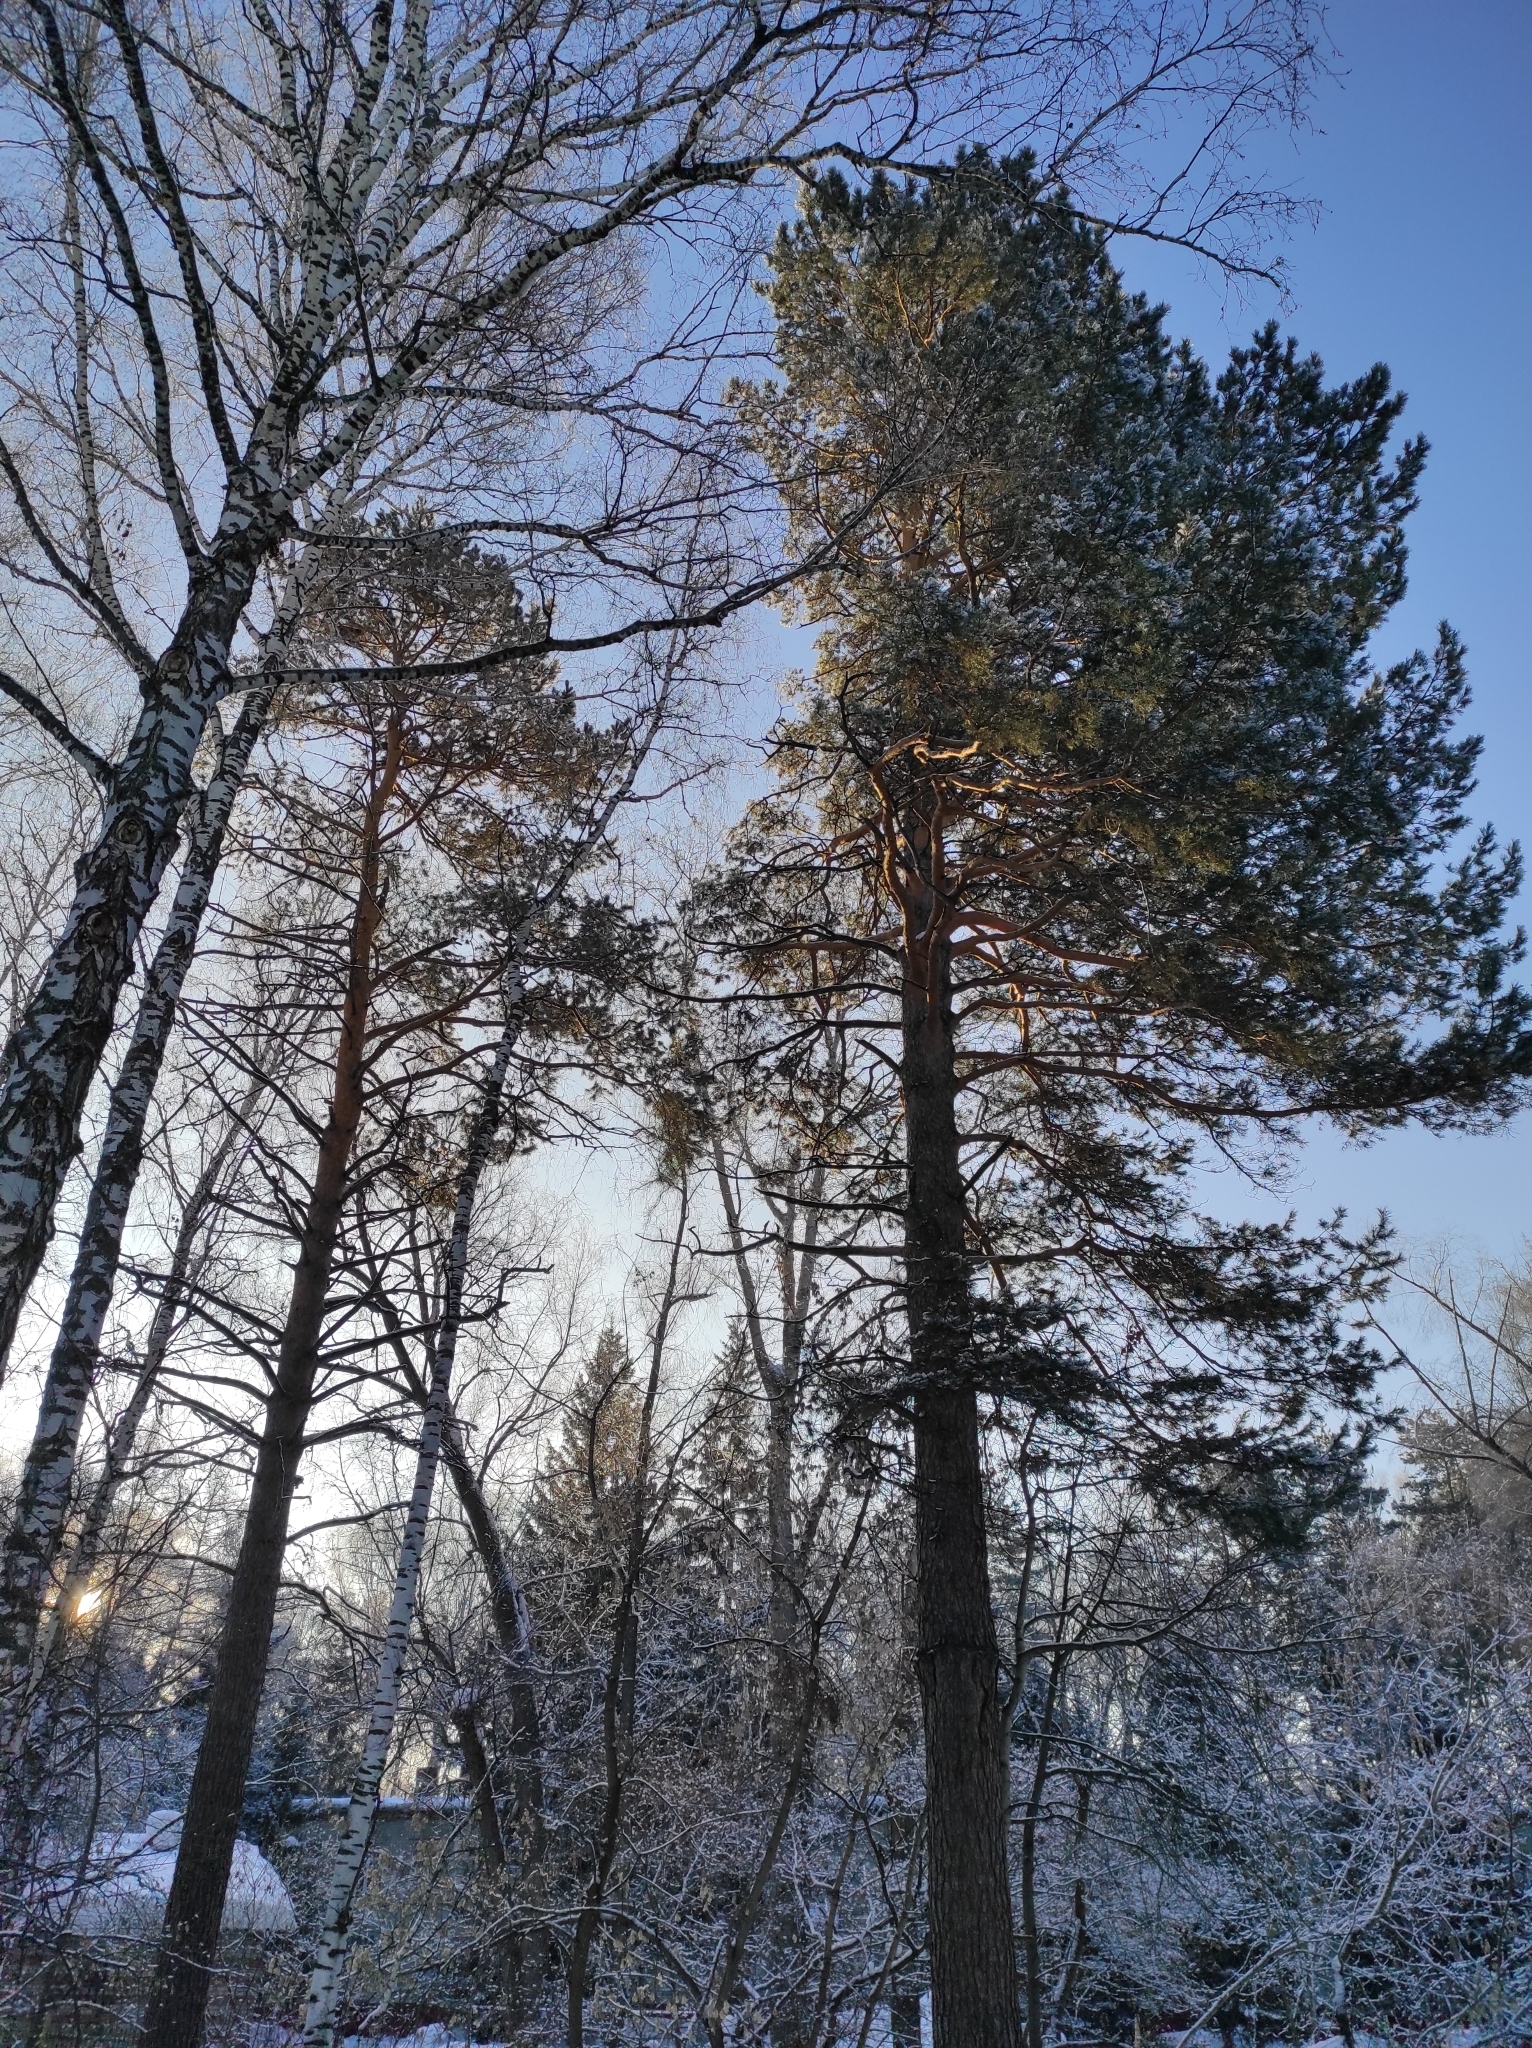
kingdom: Plantae
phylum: Tracheophyta
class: Pinopsida
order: Pinales
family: Pinaceae
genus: Pinus
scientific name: Pinus sylvestris
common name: Scots pine
